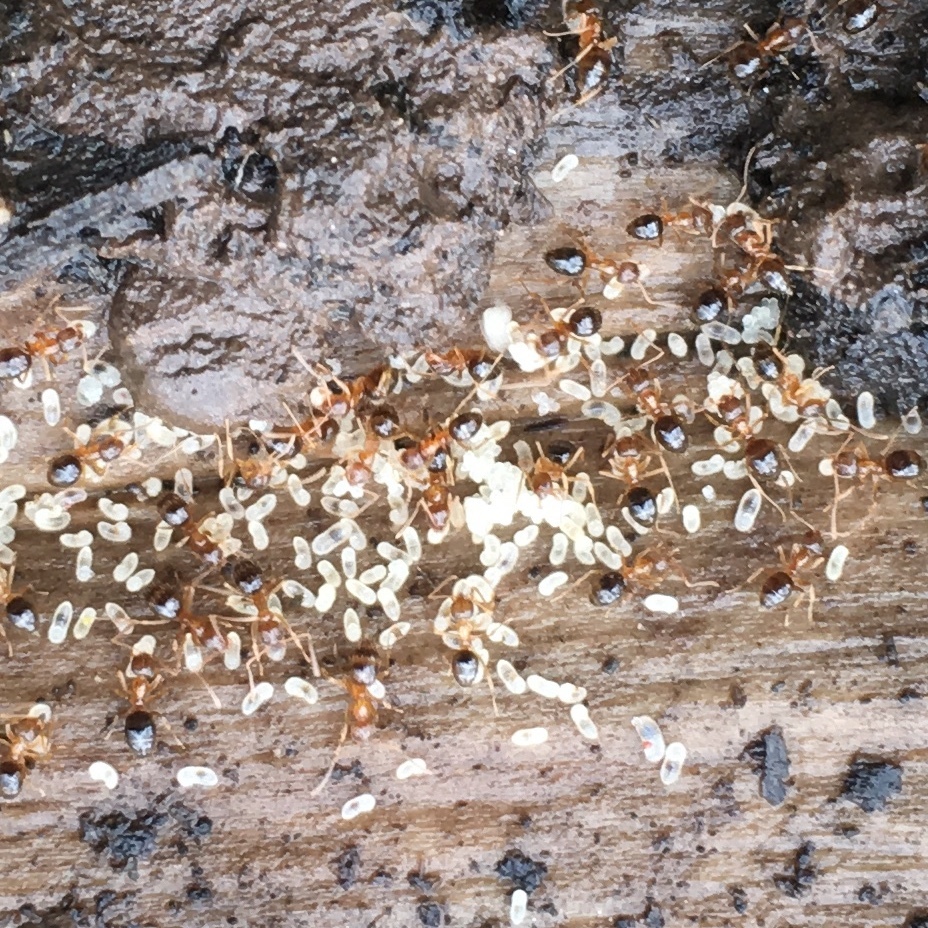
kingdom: Animalia
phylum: Arthropoda
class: Insecta
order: Hymenoptera
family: Formicidae
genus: Paratrechina
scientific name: Paratrechina flavipes
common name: Eastern asian formicine ant
